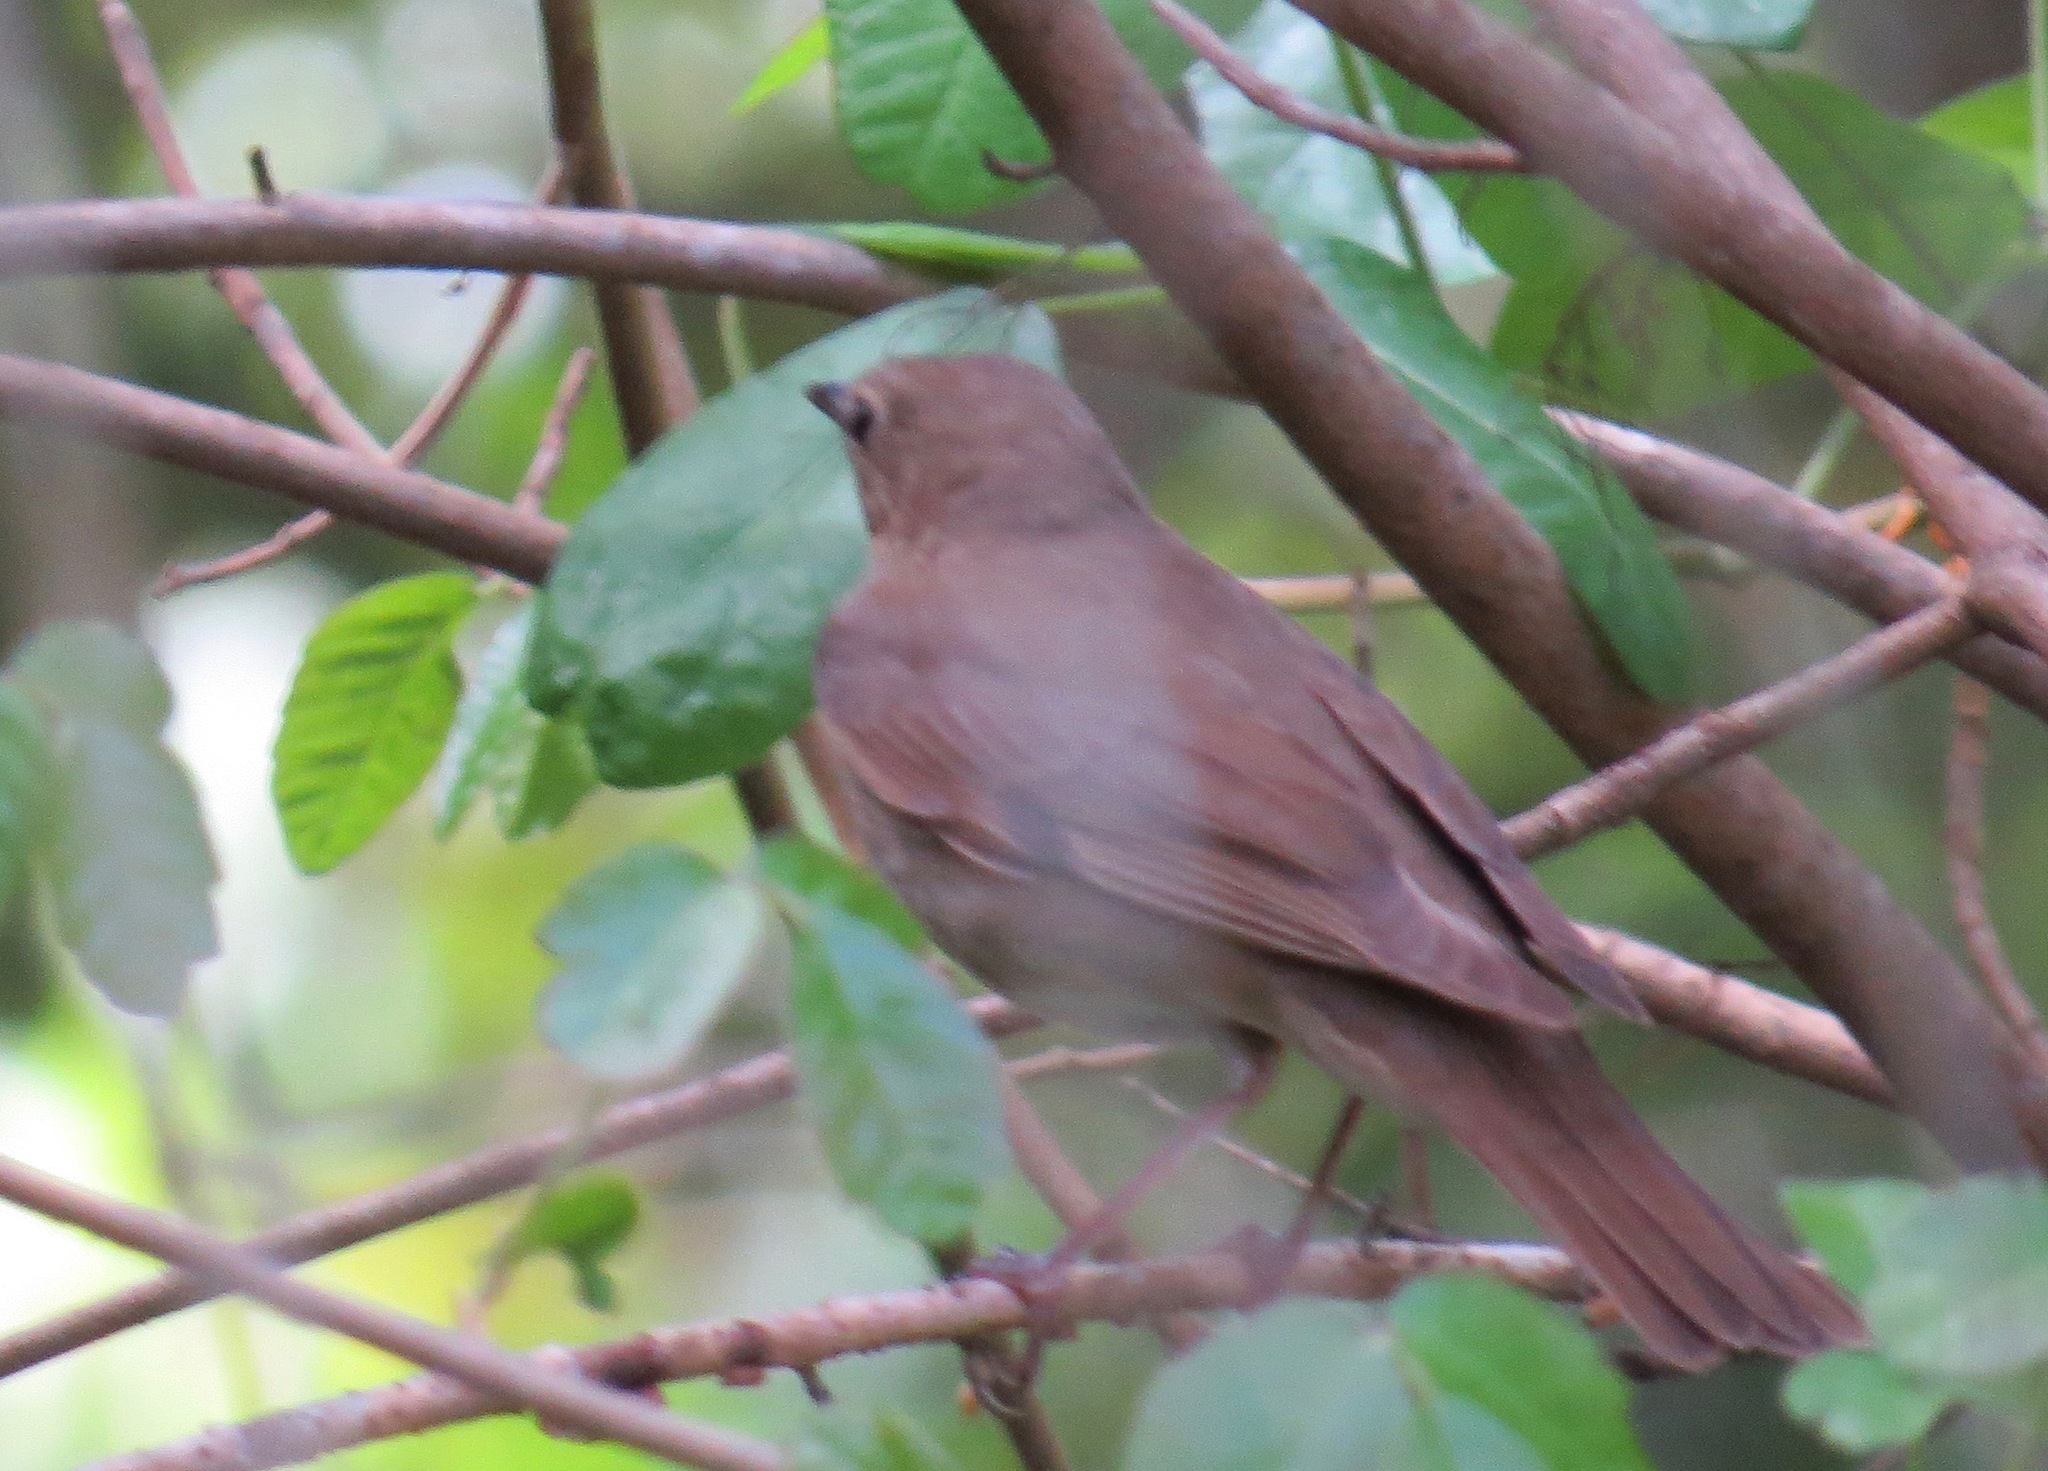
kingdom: Animalia
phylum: Chordata
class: Aves
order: Passeriformes
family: Turdidae
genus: Catharus
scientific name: Catharus ustulatus
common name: Swainson's thrush
